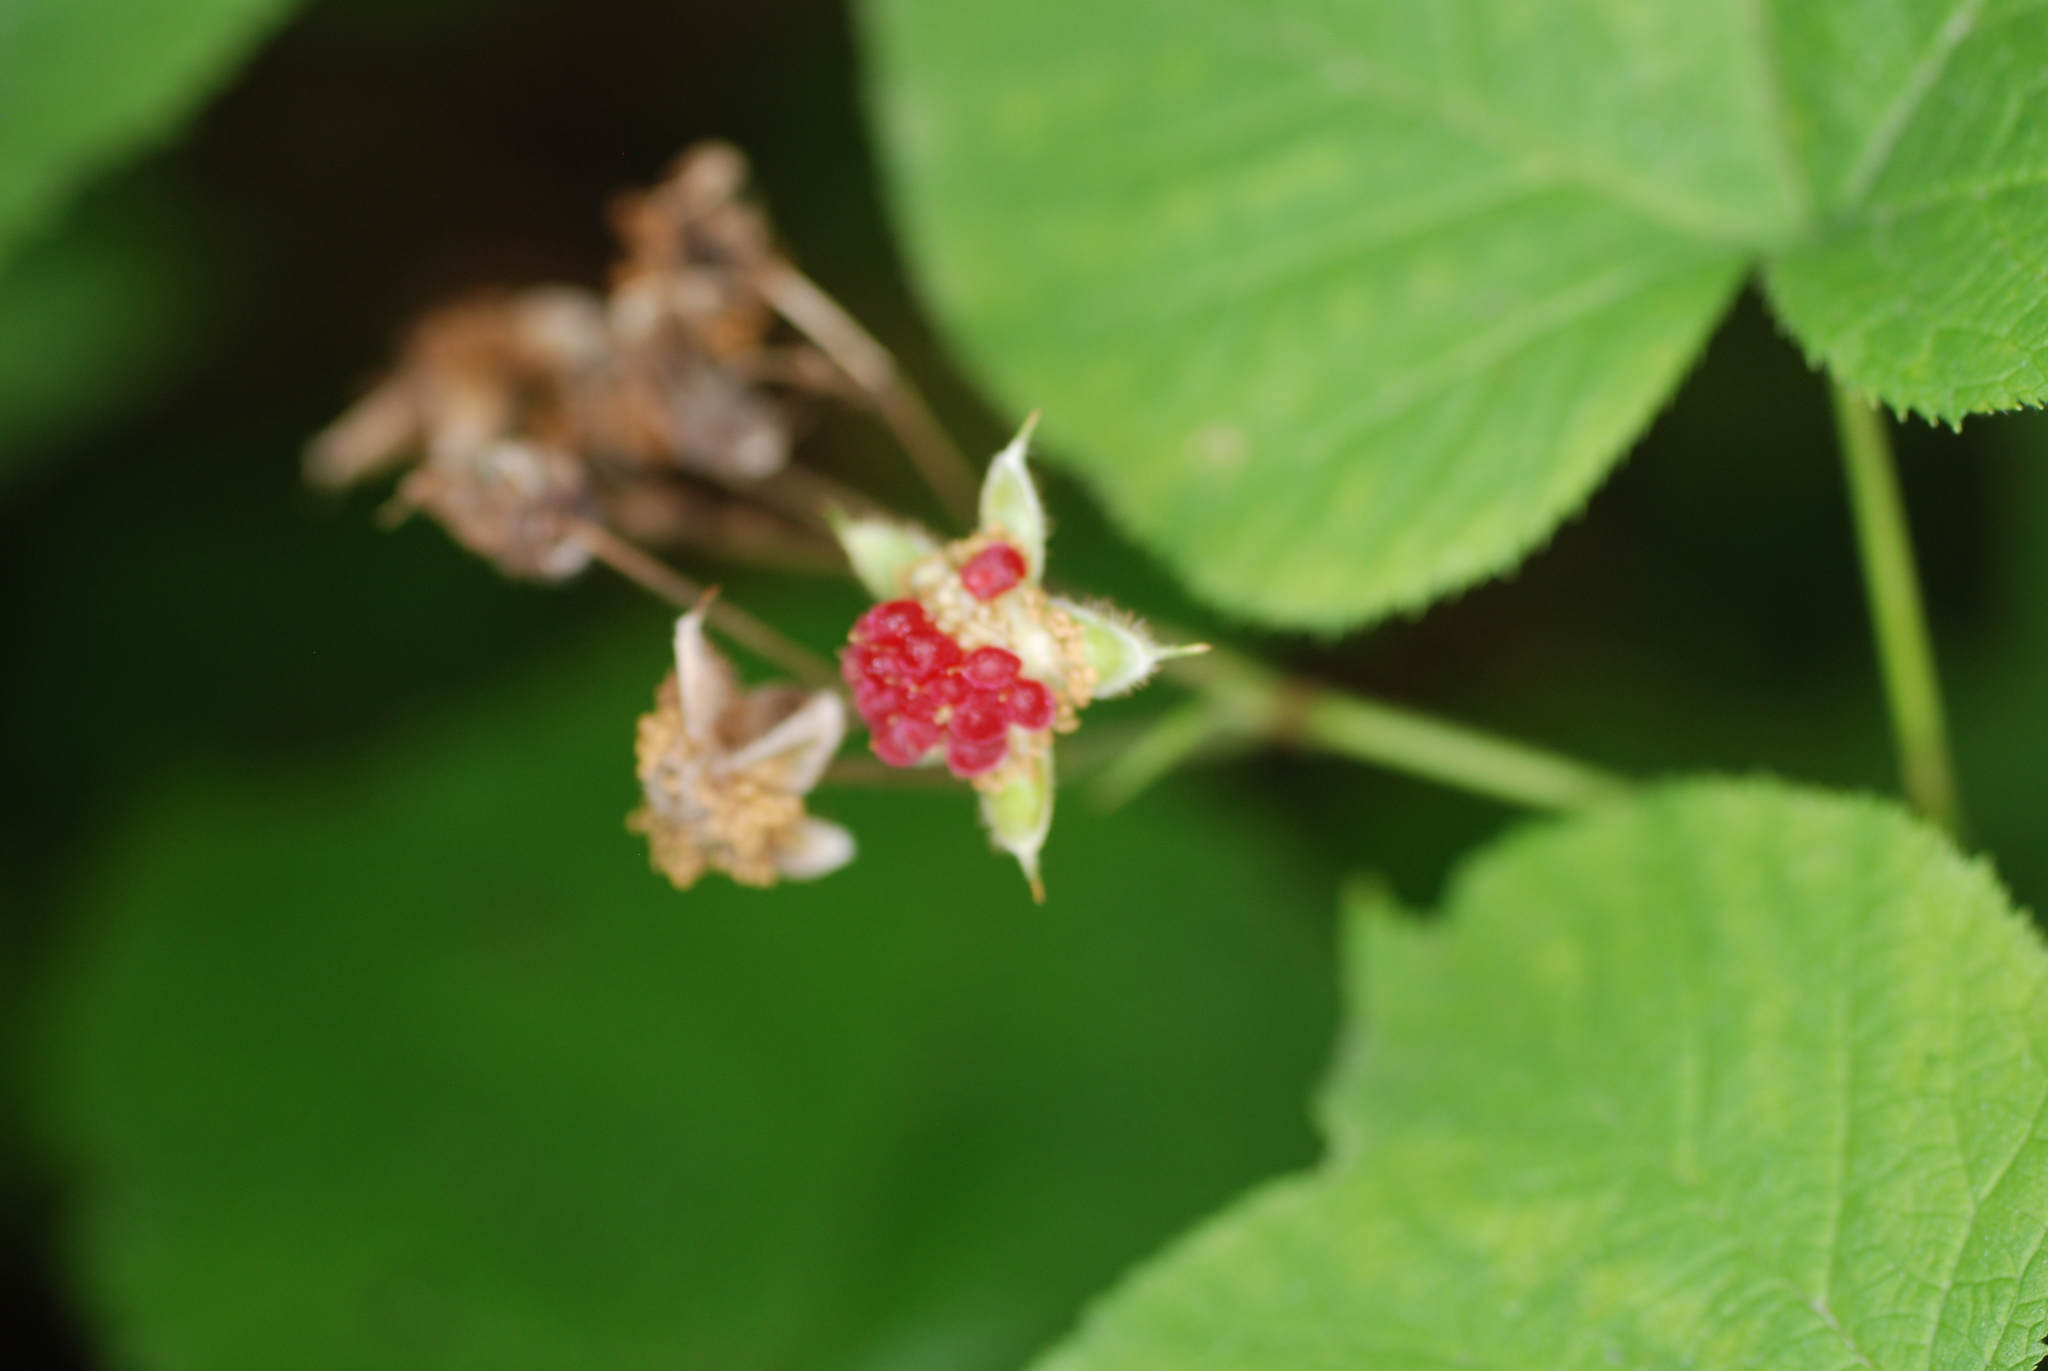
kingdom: Plantae
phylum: Tracheophyta
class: Magnoliopsida
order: Rosales
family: Rosaceae
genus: Rubus
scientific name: Rubus odoratus
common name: Purple-flowered raspberry
